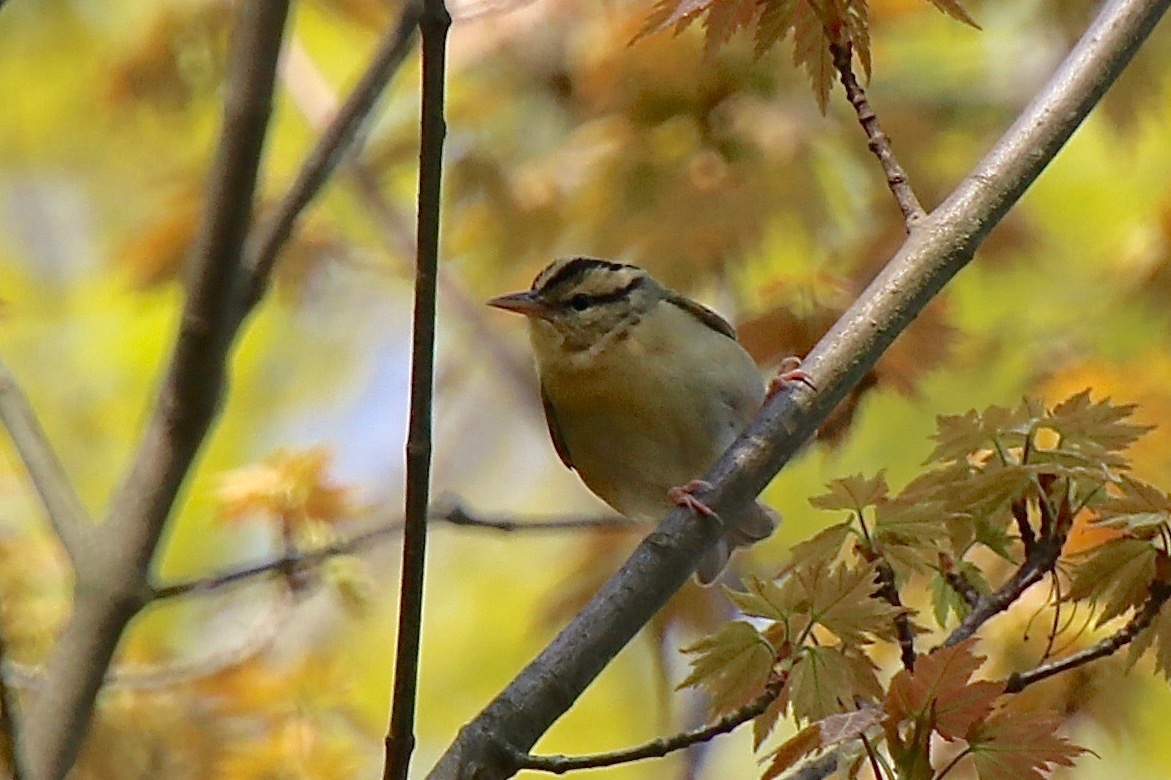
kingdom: Animalia
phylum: Chordata
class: Aves
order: Passeriformes
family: Parulidae
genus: Helmitheros
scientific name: Helmitheros vermivorum
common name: Worm-eating warbler
